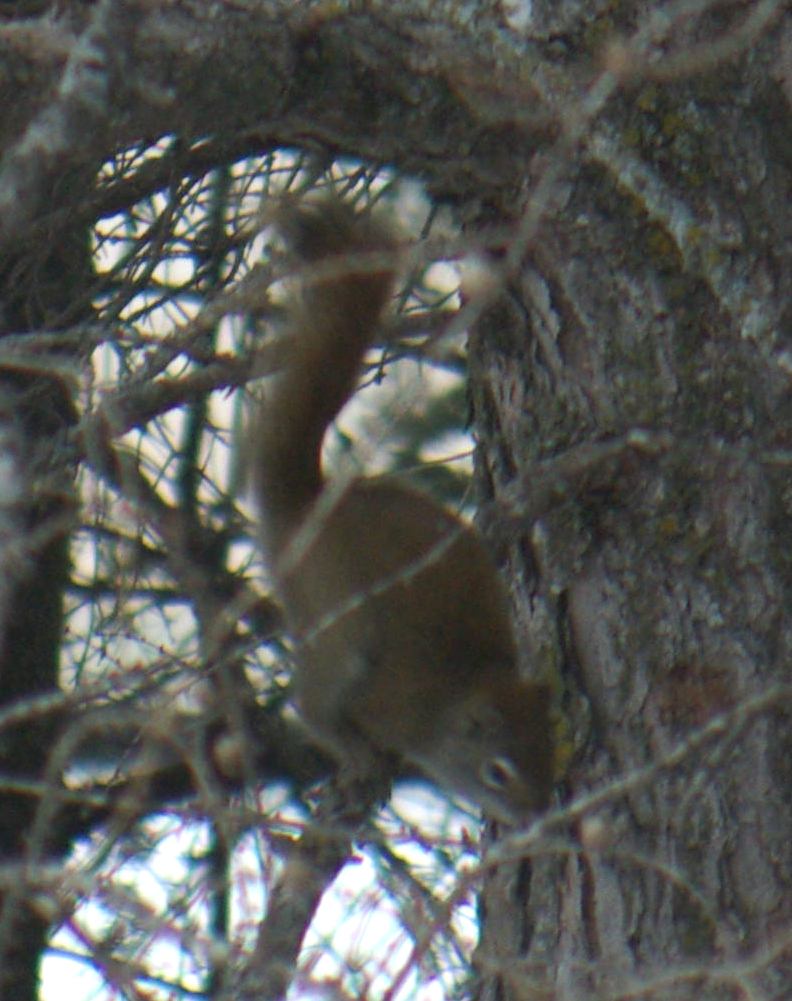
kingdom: Animalia
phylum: Chordata
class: Mammalia
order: Rodentia
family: Sciuridae
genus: Tamiasciurus
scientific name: Tamiasciurus hudsonicus
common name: Red squirrel
